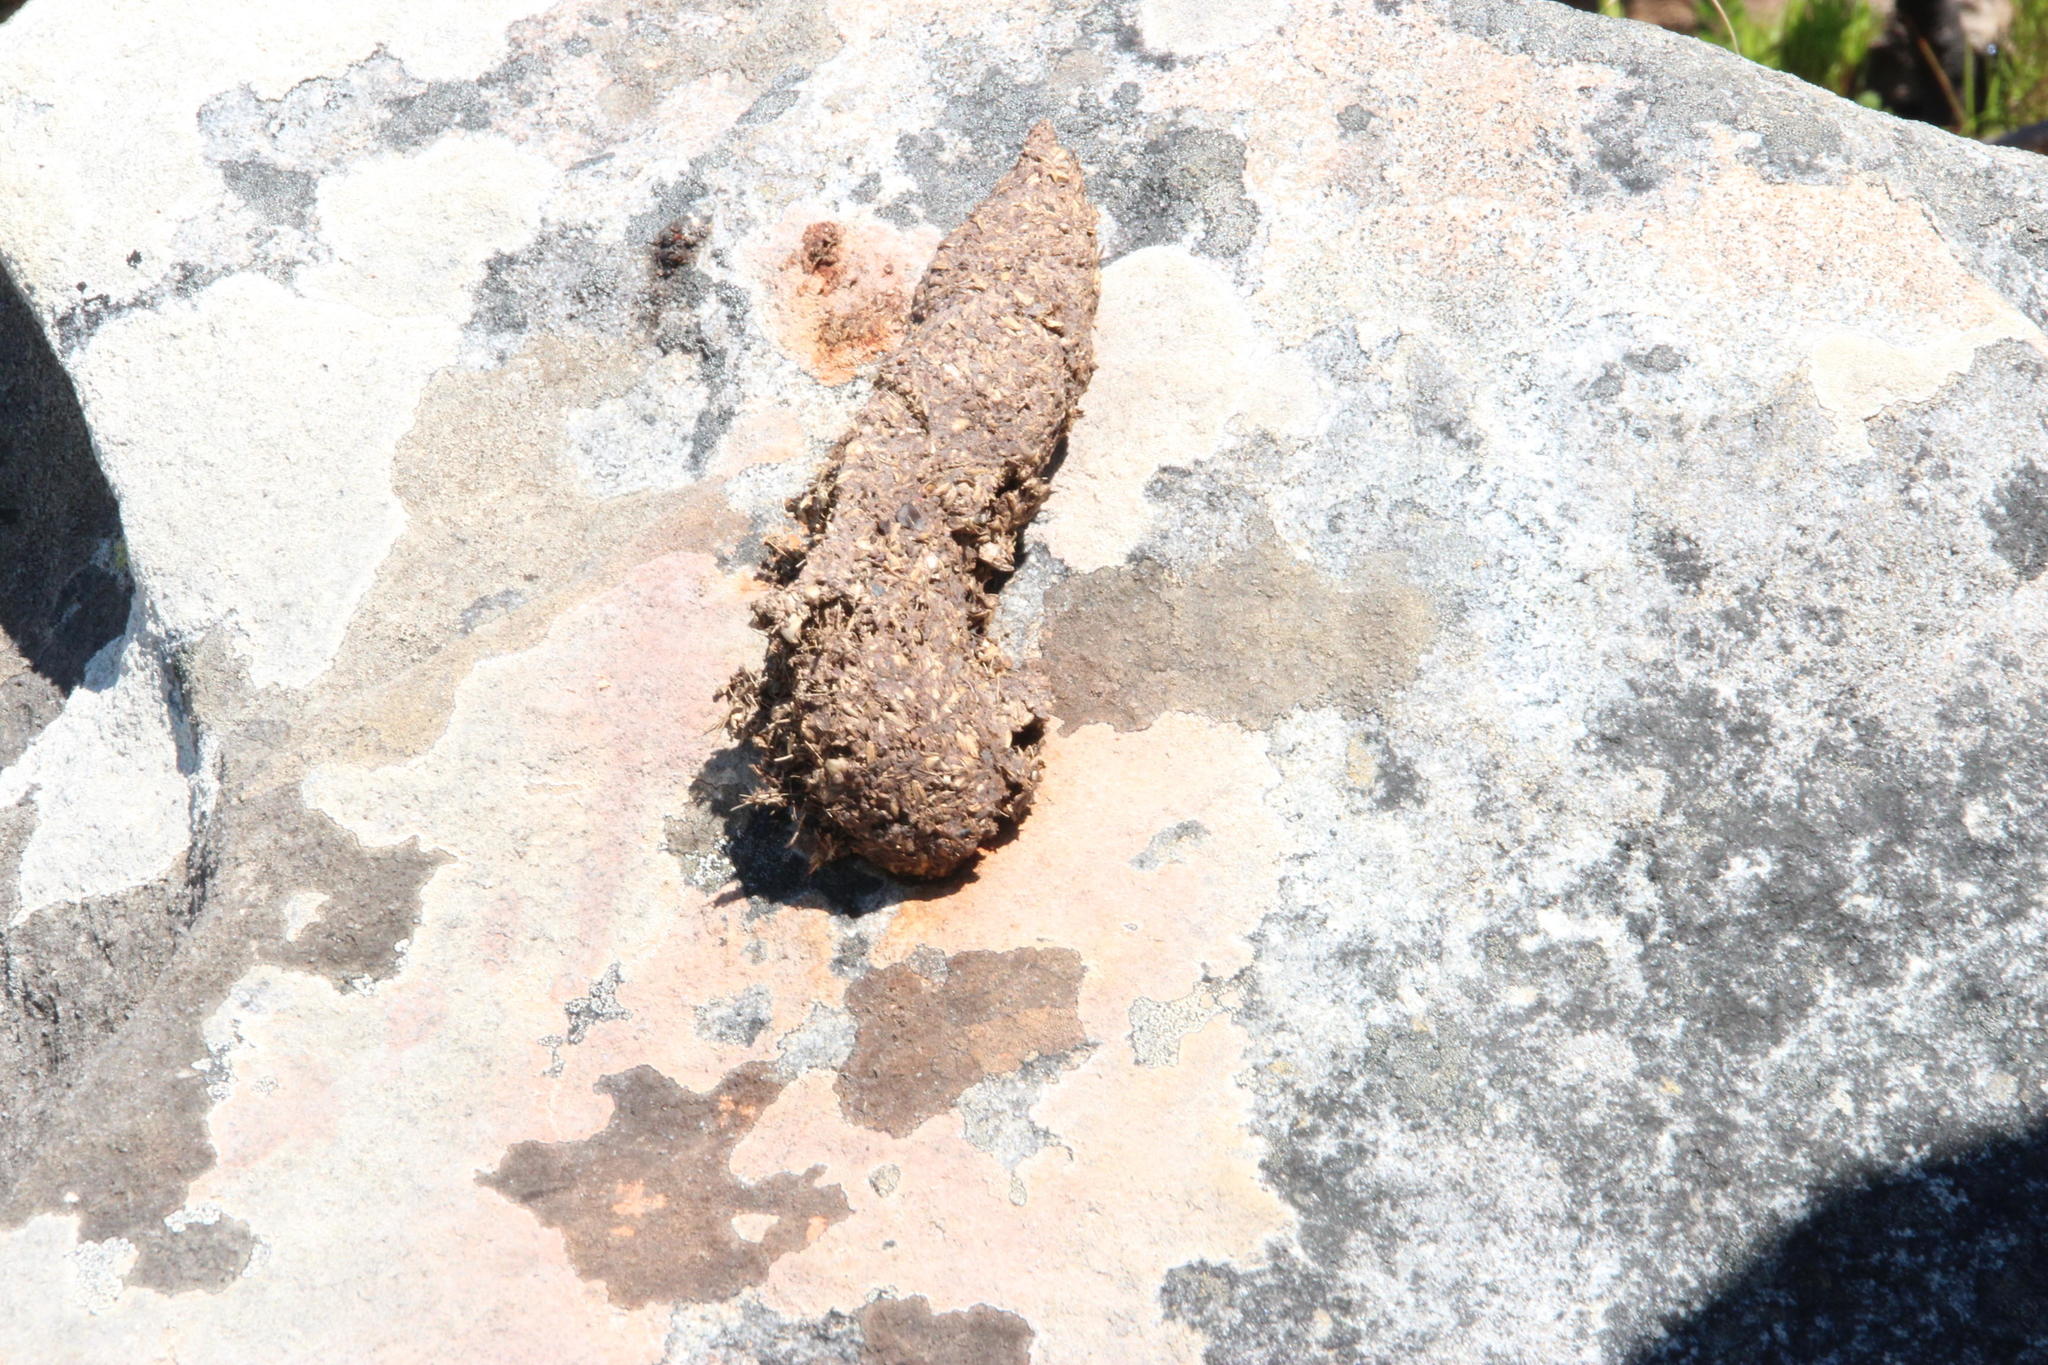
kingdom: Animalia
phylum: Chordata
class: Mammalia
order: Primates
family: Cercopithecidae
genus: Papio
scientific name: Papio ursinus
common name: Chacma baboon
